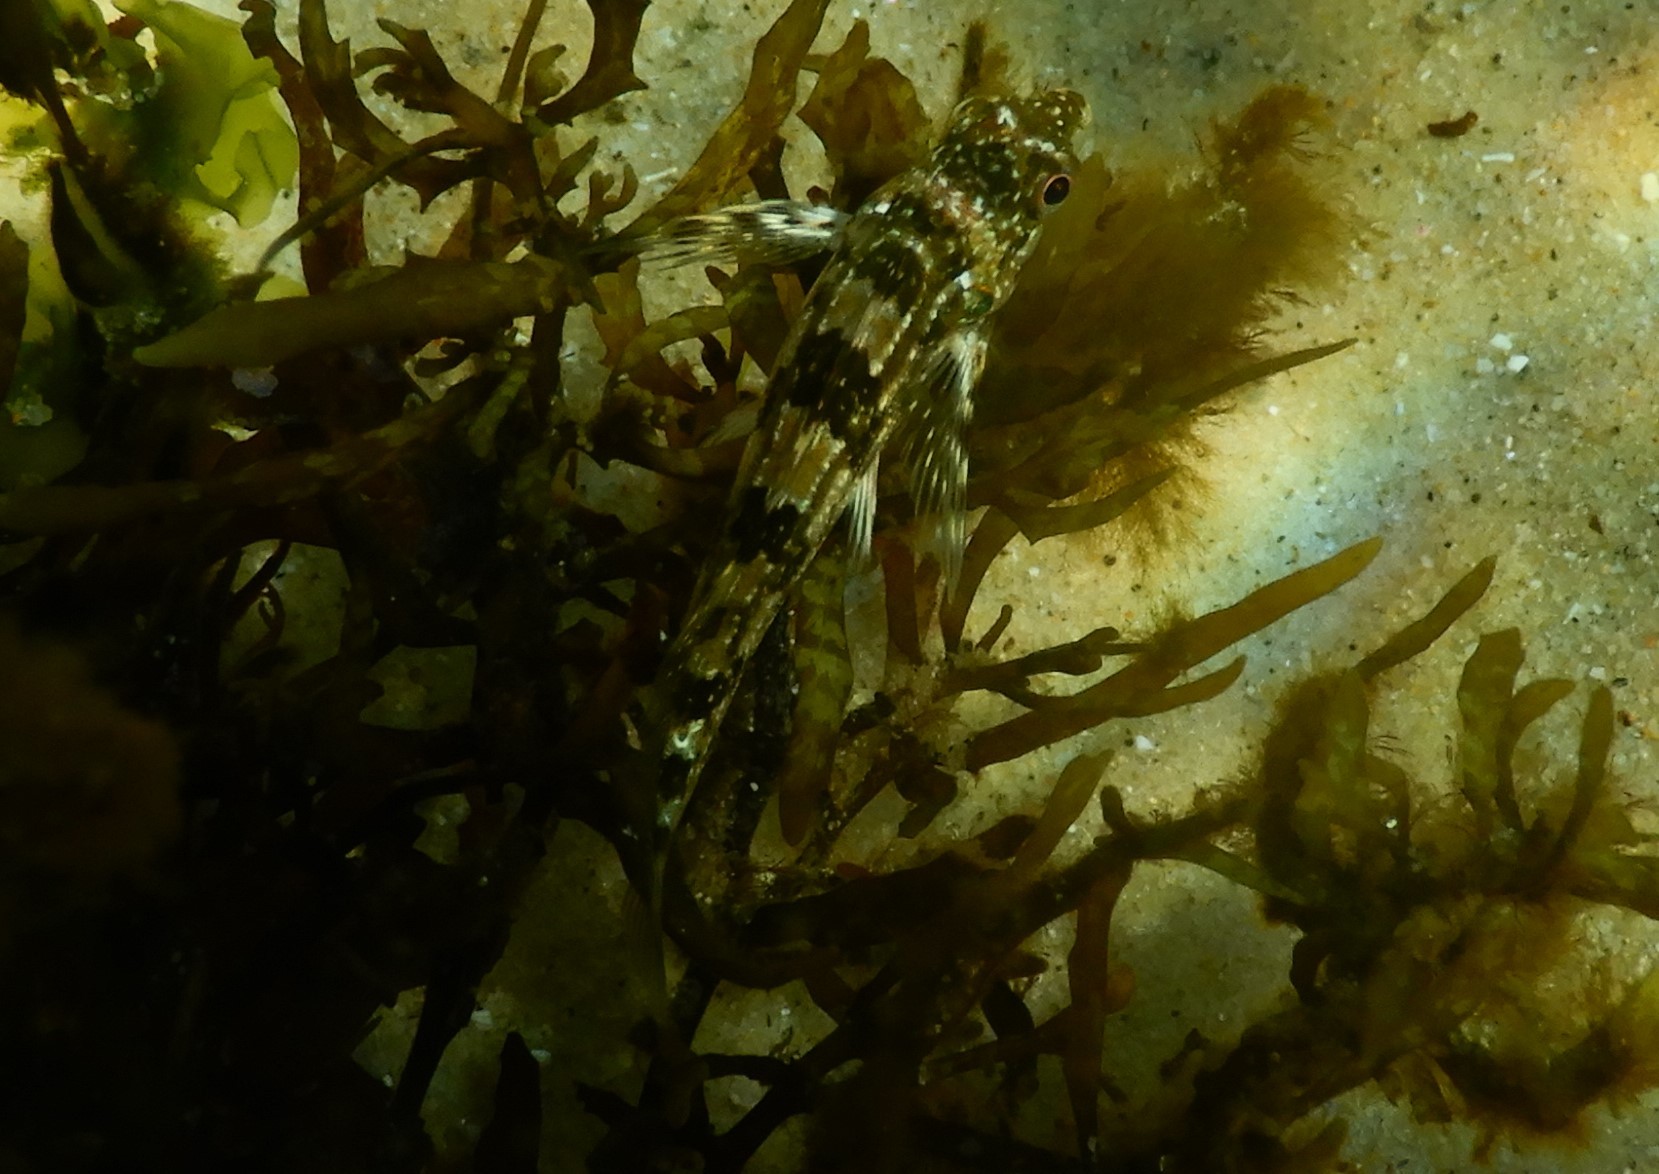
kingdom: Animalia
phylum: Chordata
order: Perciformes
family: Chironemidae
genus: Chironemus
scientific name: Chironemus marmoratus
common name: Kelpfish
